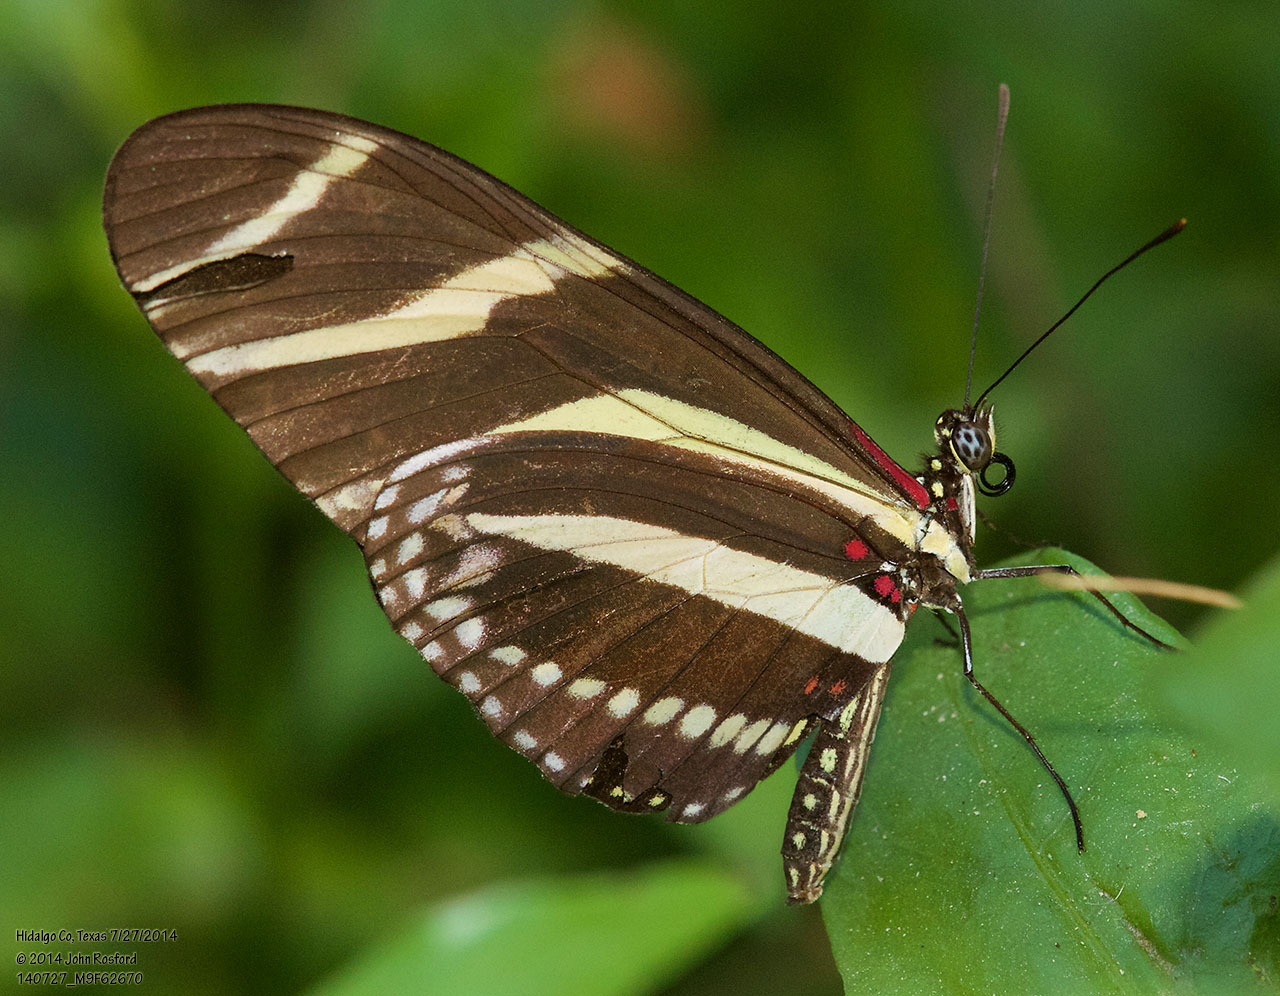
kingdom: Animalia
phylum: Arthropoda
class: Insecta
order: Lepidoptera
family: Nymphalidae
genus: Heliconius
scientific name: Heliconius charithonia
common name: Zebra long wing
